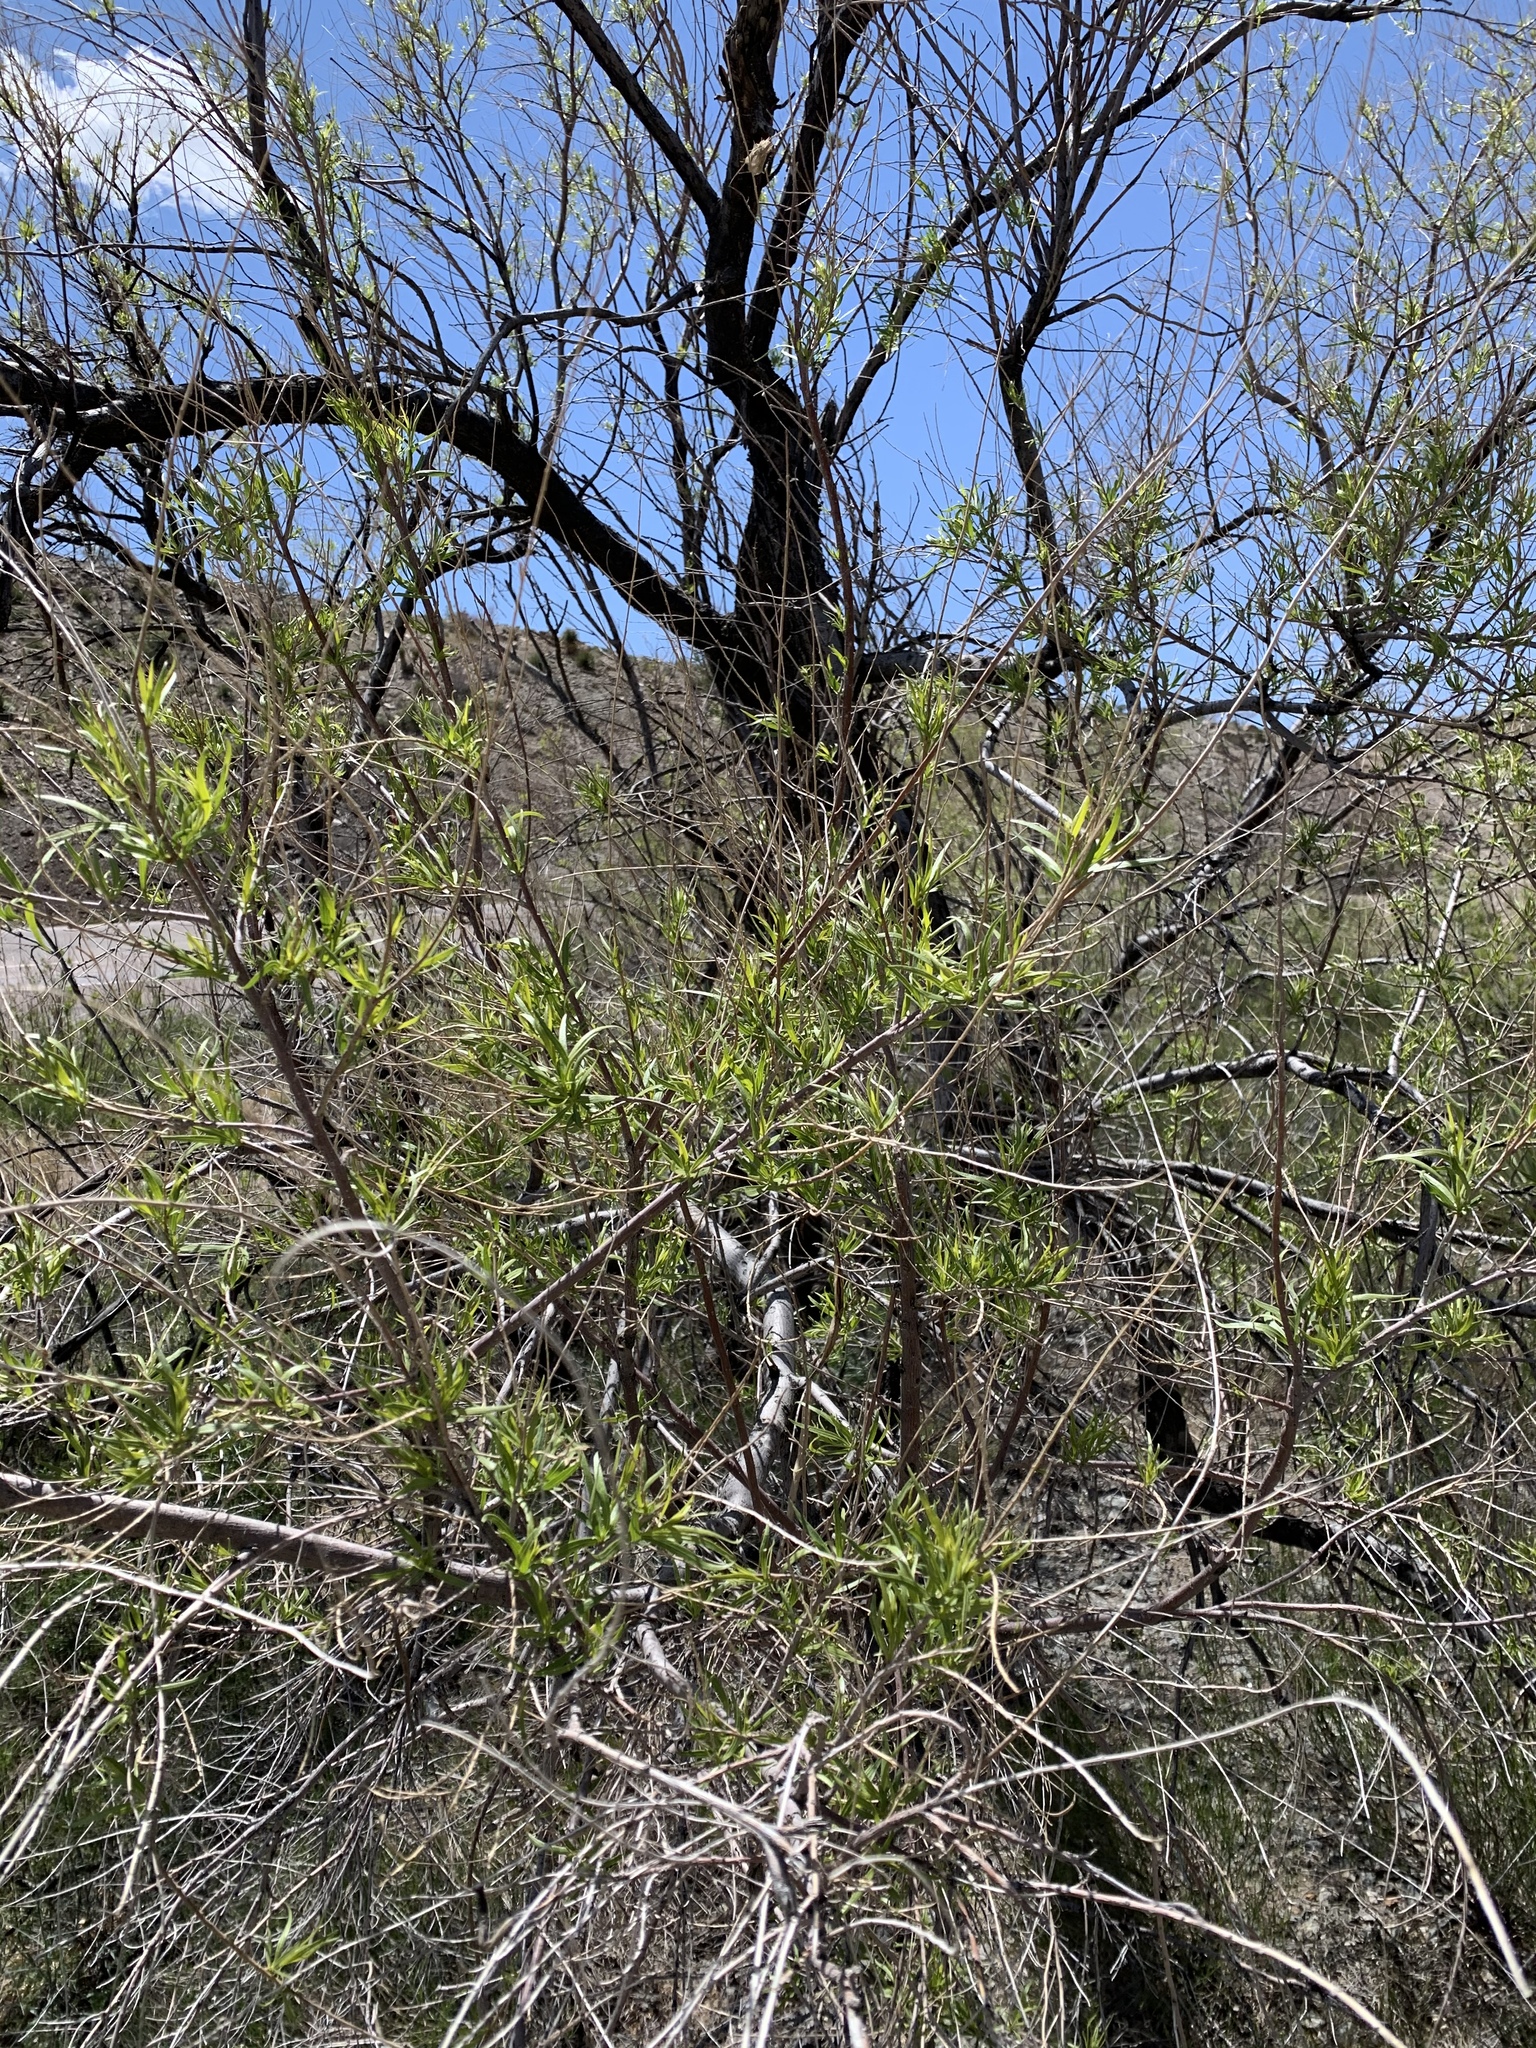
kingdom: Plantae
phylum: Tracheophyta
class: Magnoliopsida
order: Lamiales
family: Bignoniaceae
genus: Chilopsis
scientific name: Chilopsis linearis
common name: Desert-willow
